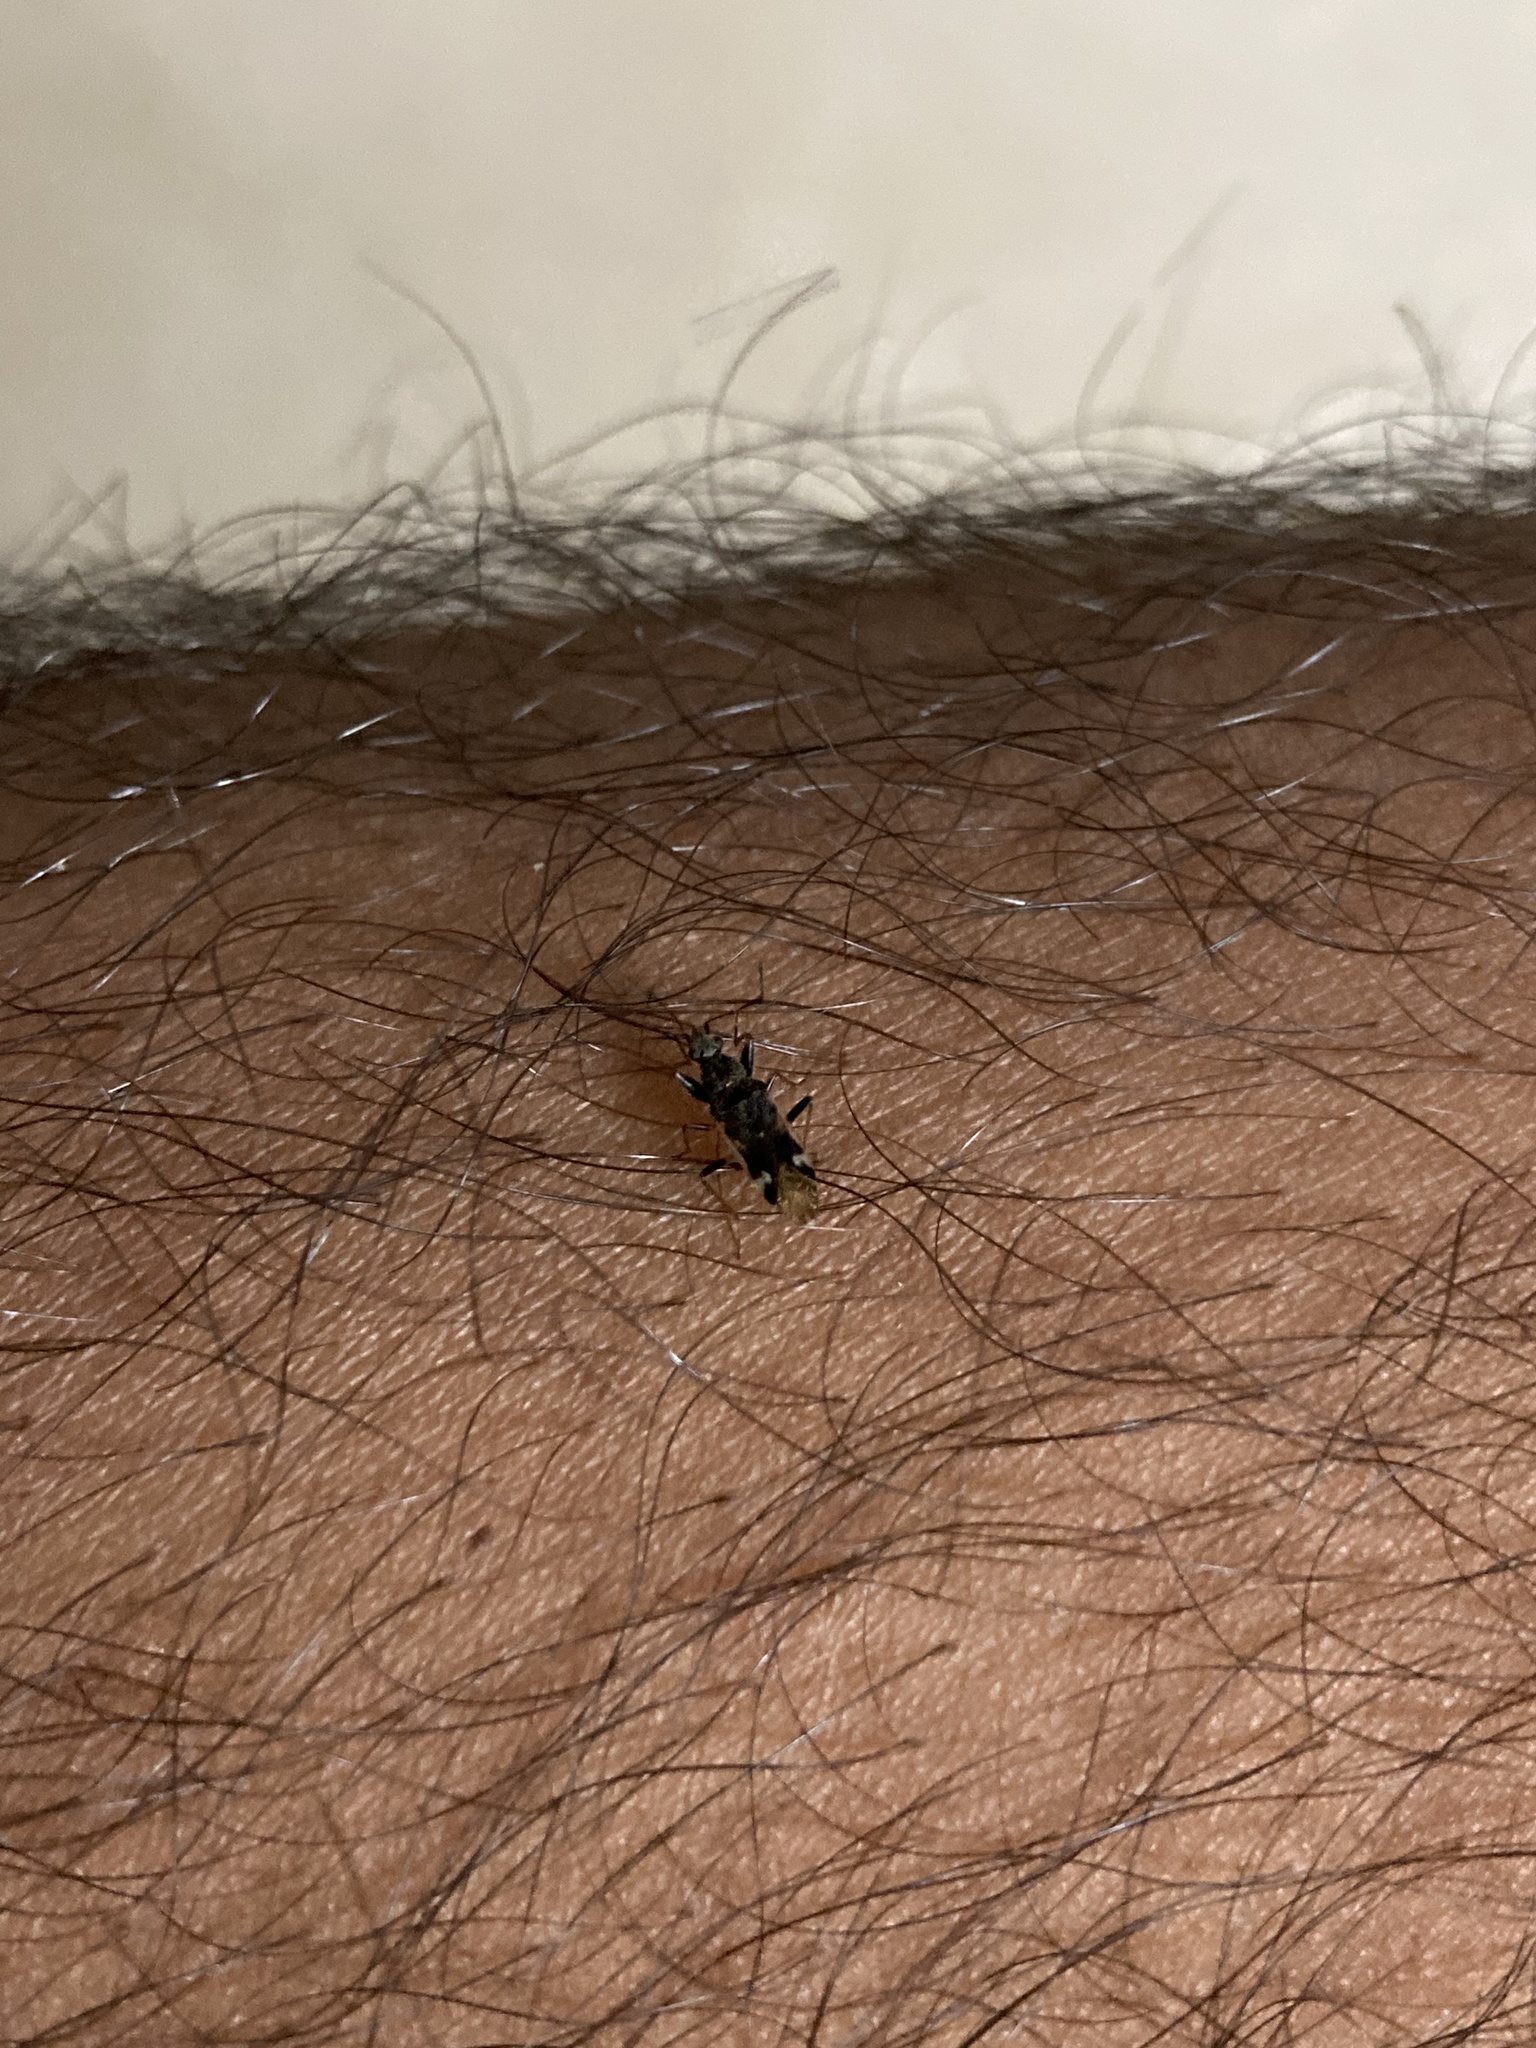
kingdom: Animalia
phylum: Arthropoda
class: Insecta
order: Hemiptera
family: Rhyparochromidae
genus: Horridipamera
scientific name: Horridipamera nietneri
